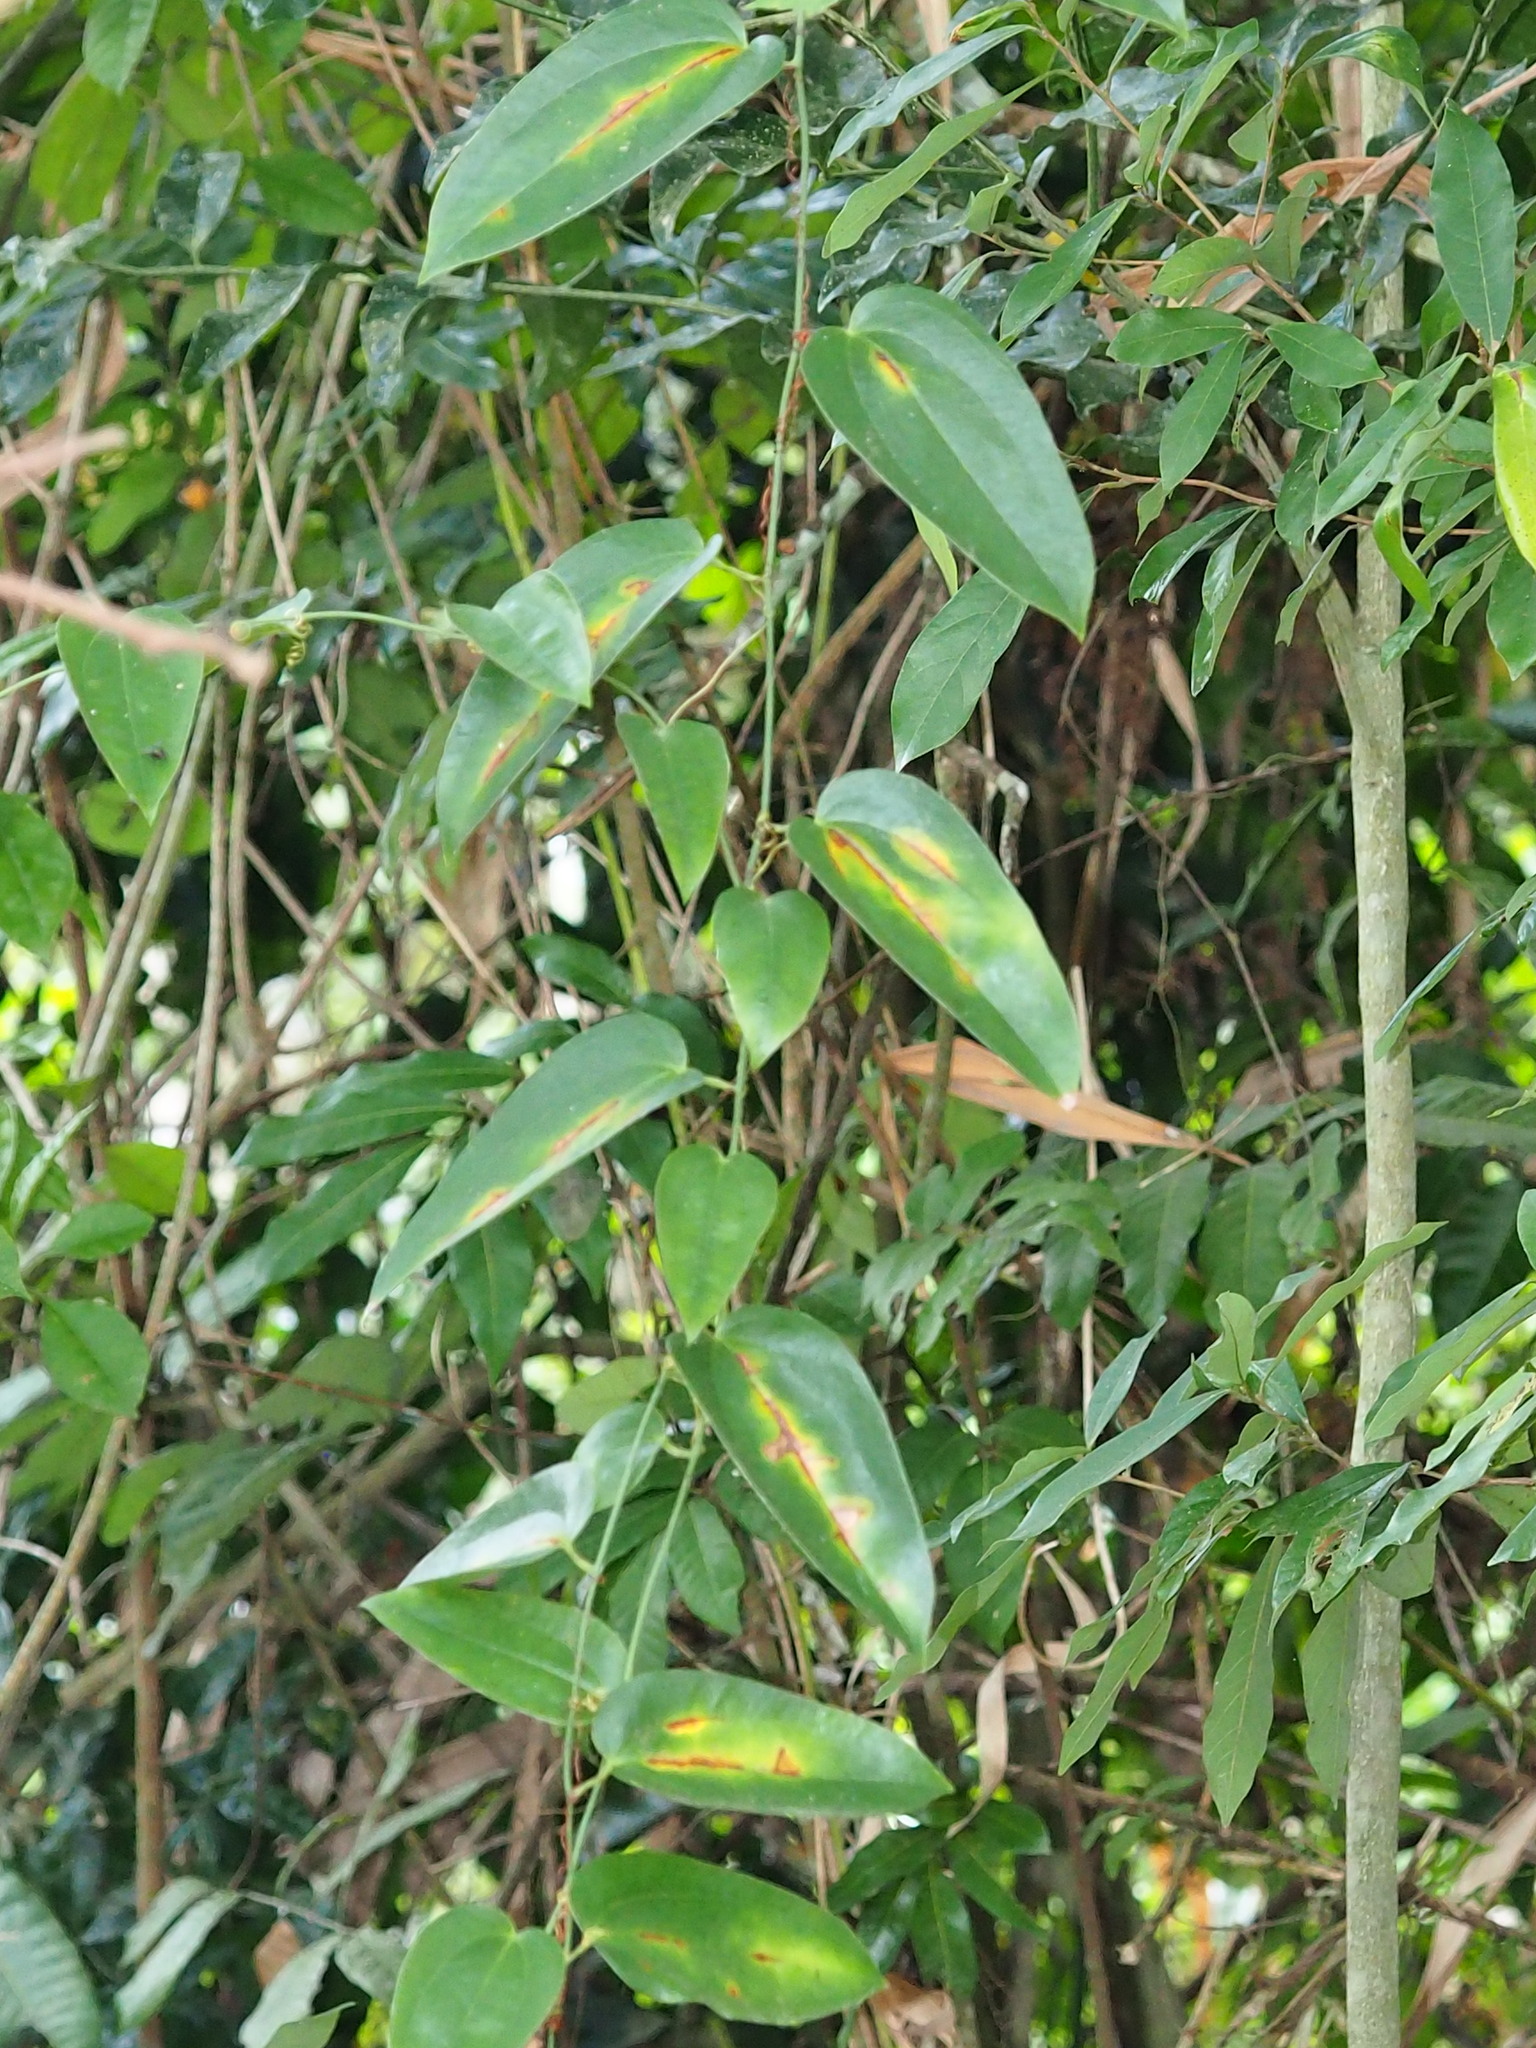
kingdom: Plantae
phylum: Tracheophyta
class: Liliopsida
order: Liliales
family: Smilacaceae
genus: Smilax
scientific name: Smilax
